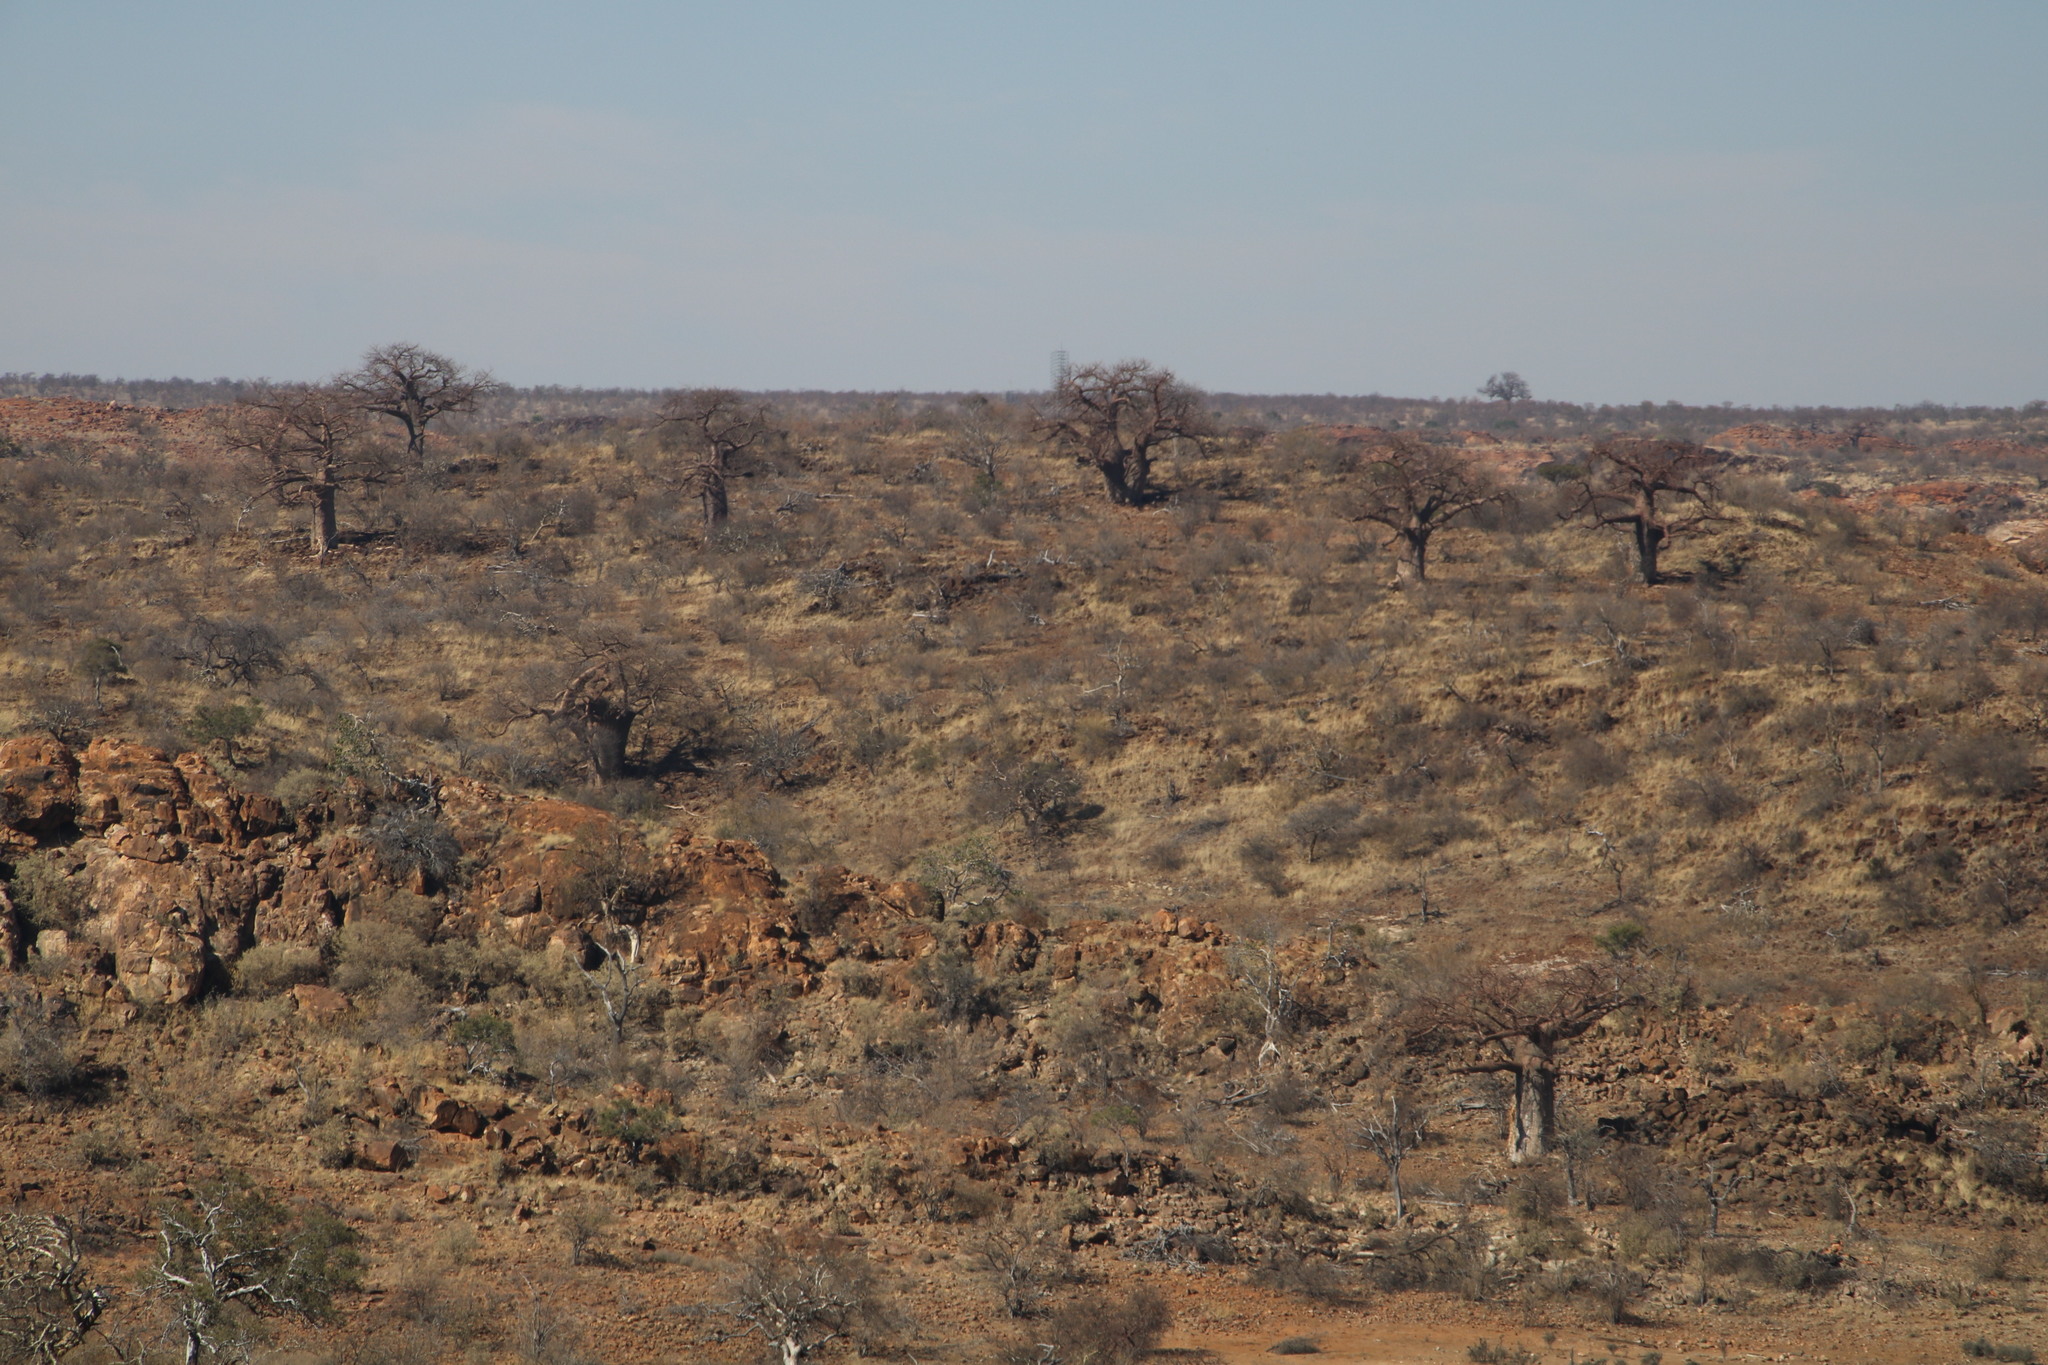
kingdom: Plantae
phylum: Tracheophyta
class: Magnoliopsida
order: Malvales
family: Malvaceae
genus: Adansonia
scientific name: Adansonia digitata
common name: Dead-rat-tree
